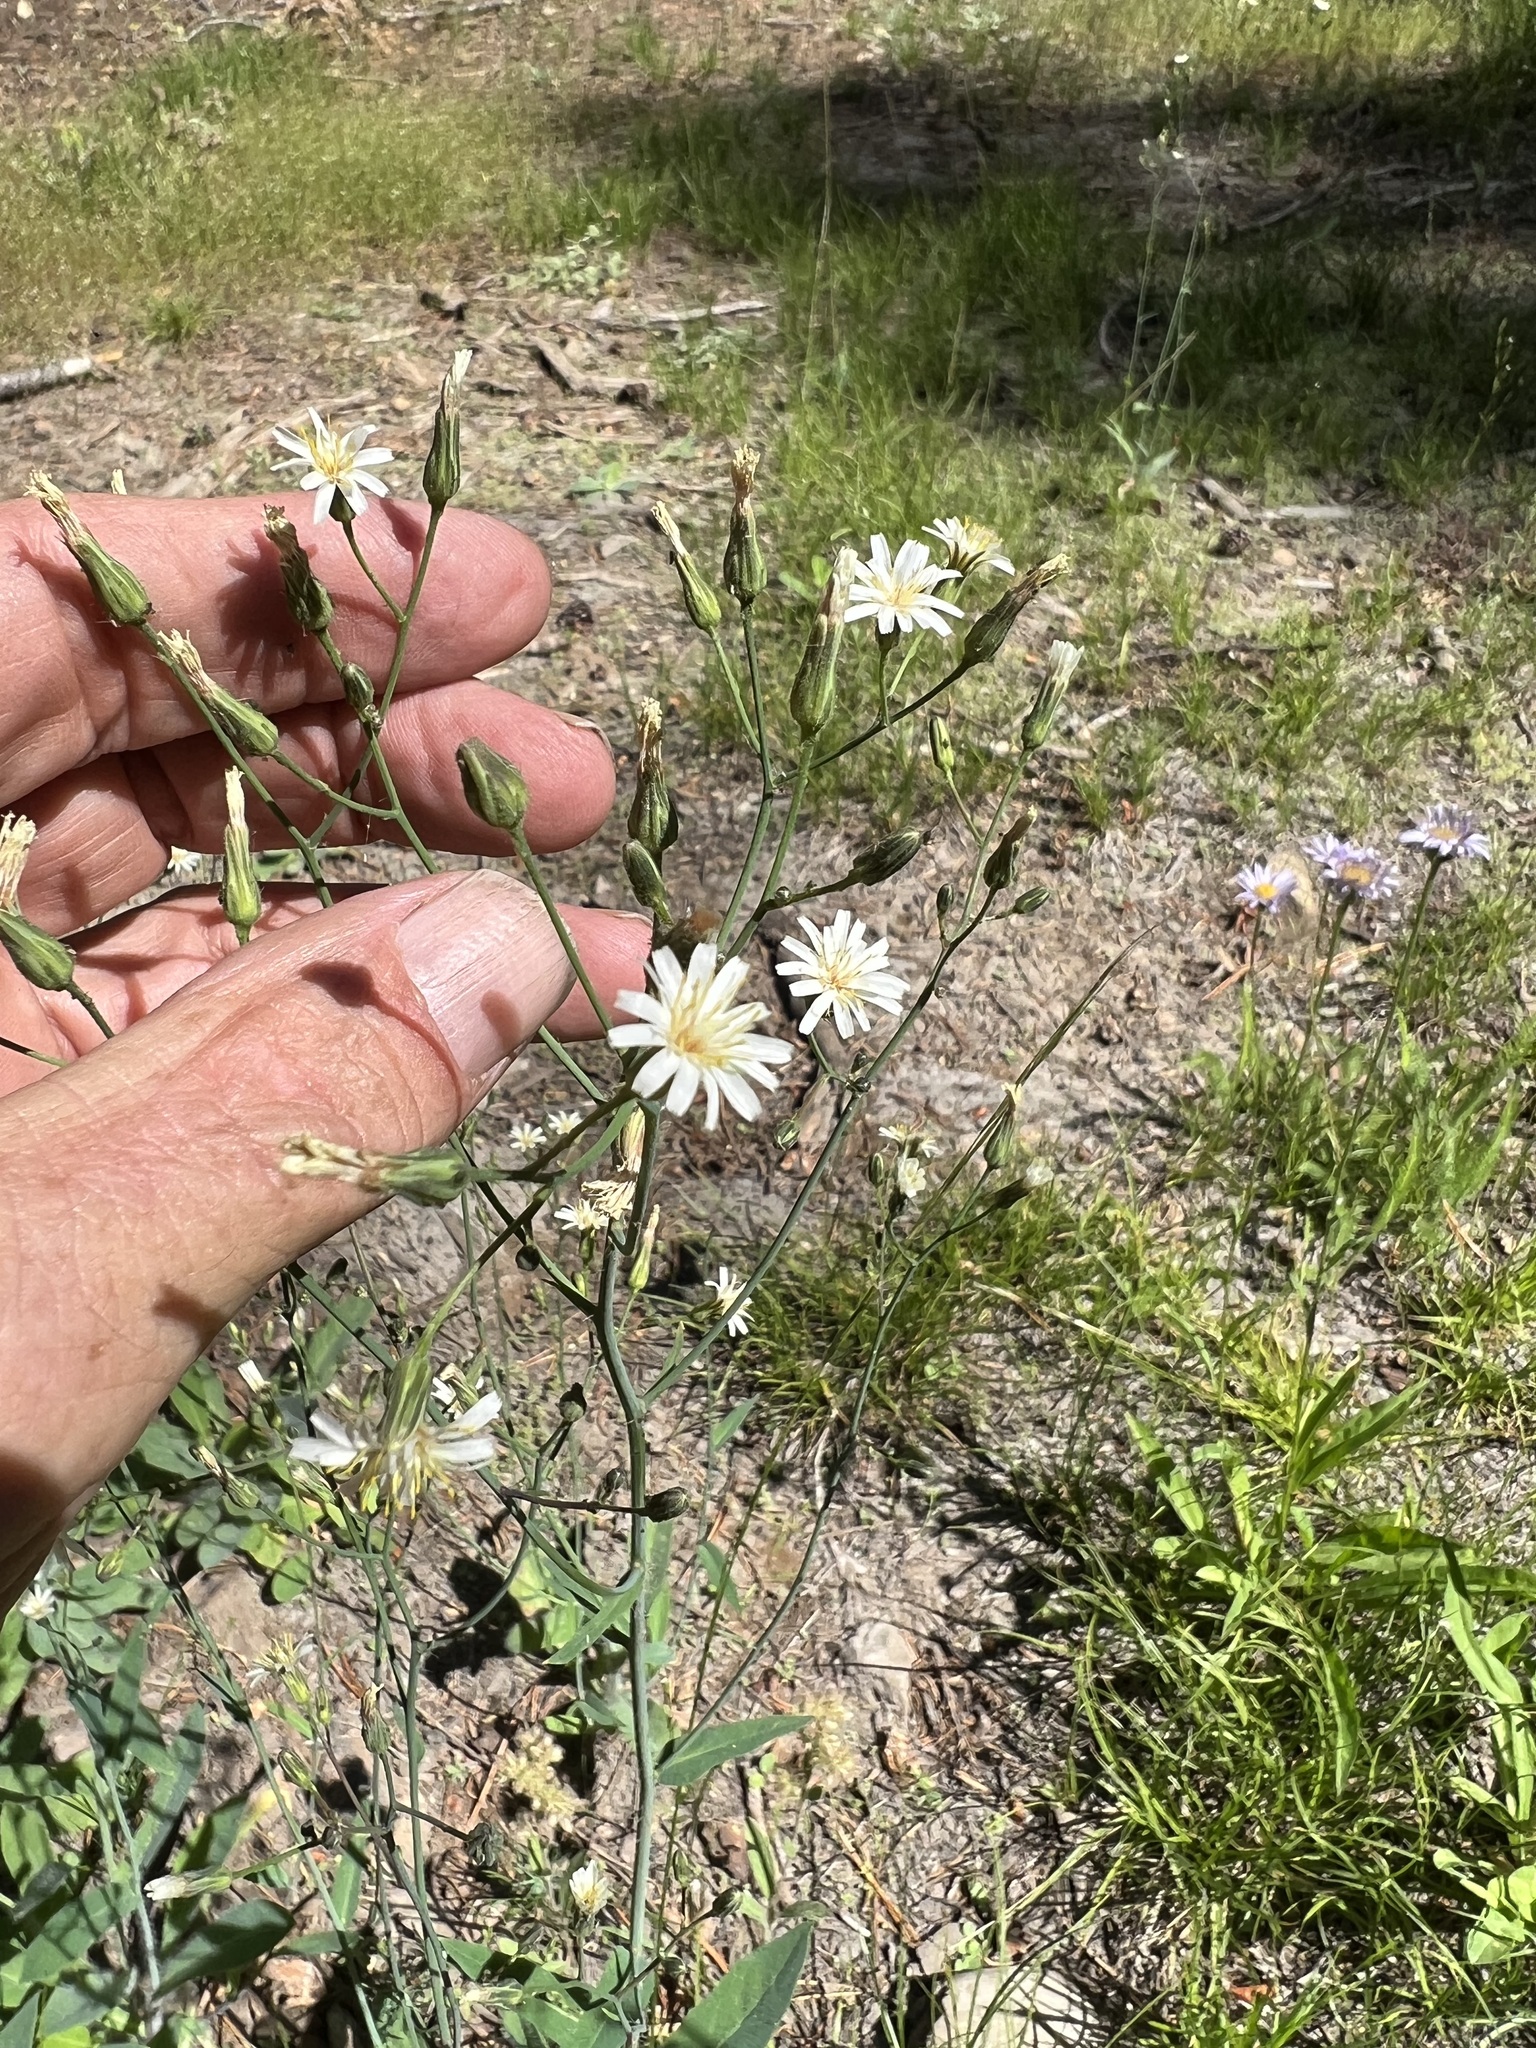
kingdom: Plantae
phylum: Tracheophyta
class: Magnoliopsida
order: Asterales
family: Asteraceae
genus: Hieracium
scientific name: Hieracium albiflorum
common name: White hawkweed
